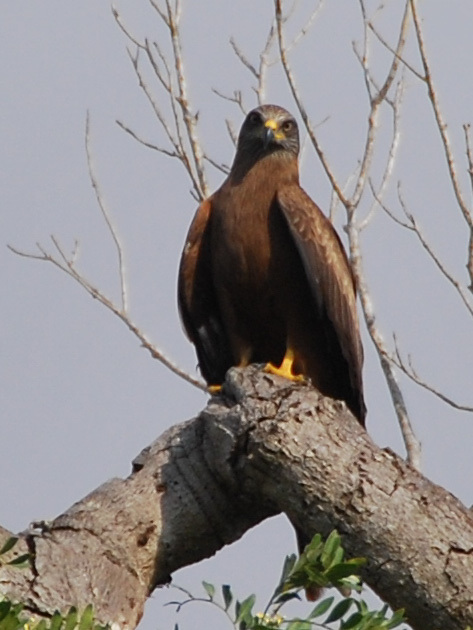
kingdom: Animalia
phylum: Chordata
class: Aves
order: Accipitriformes
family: Accipitridae
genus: Milvus
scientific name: Milvus migrans
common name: Black kite
